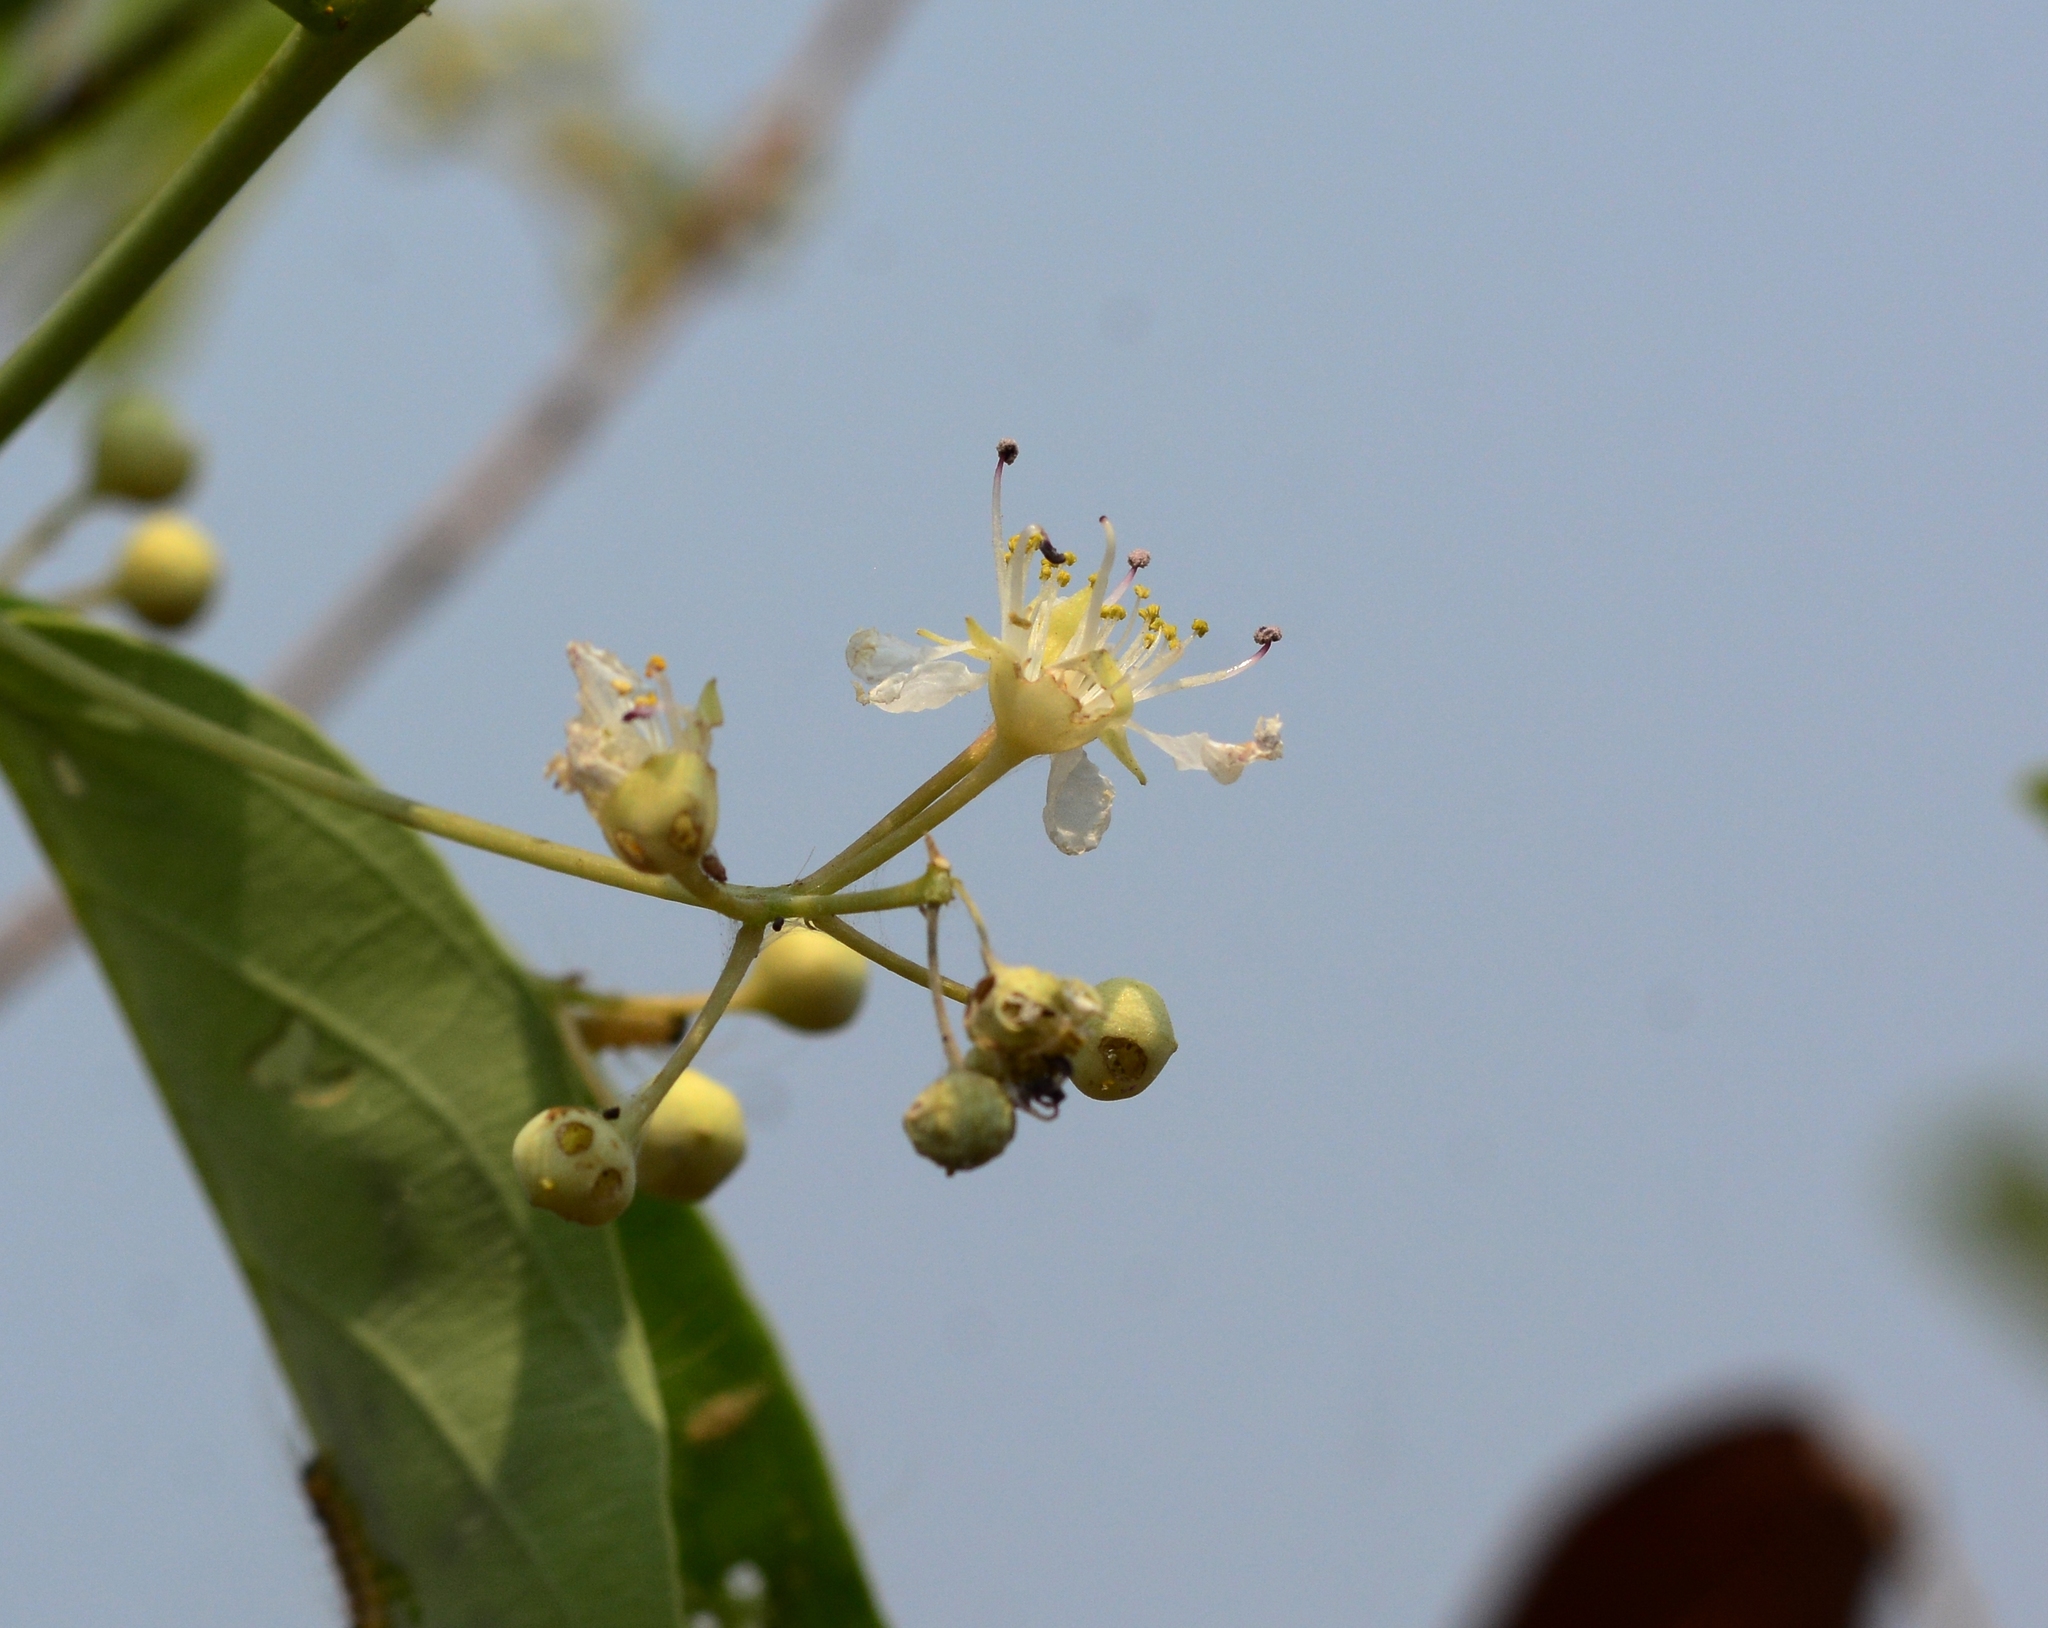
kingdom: Plantae
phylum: Tracheophyta
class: Magnoliopsida
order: Myrtales
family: Lythraceae
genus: Lagerstroemia
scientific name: Lagerstroemia parviflora
